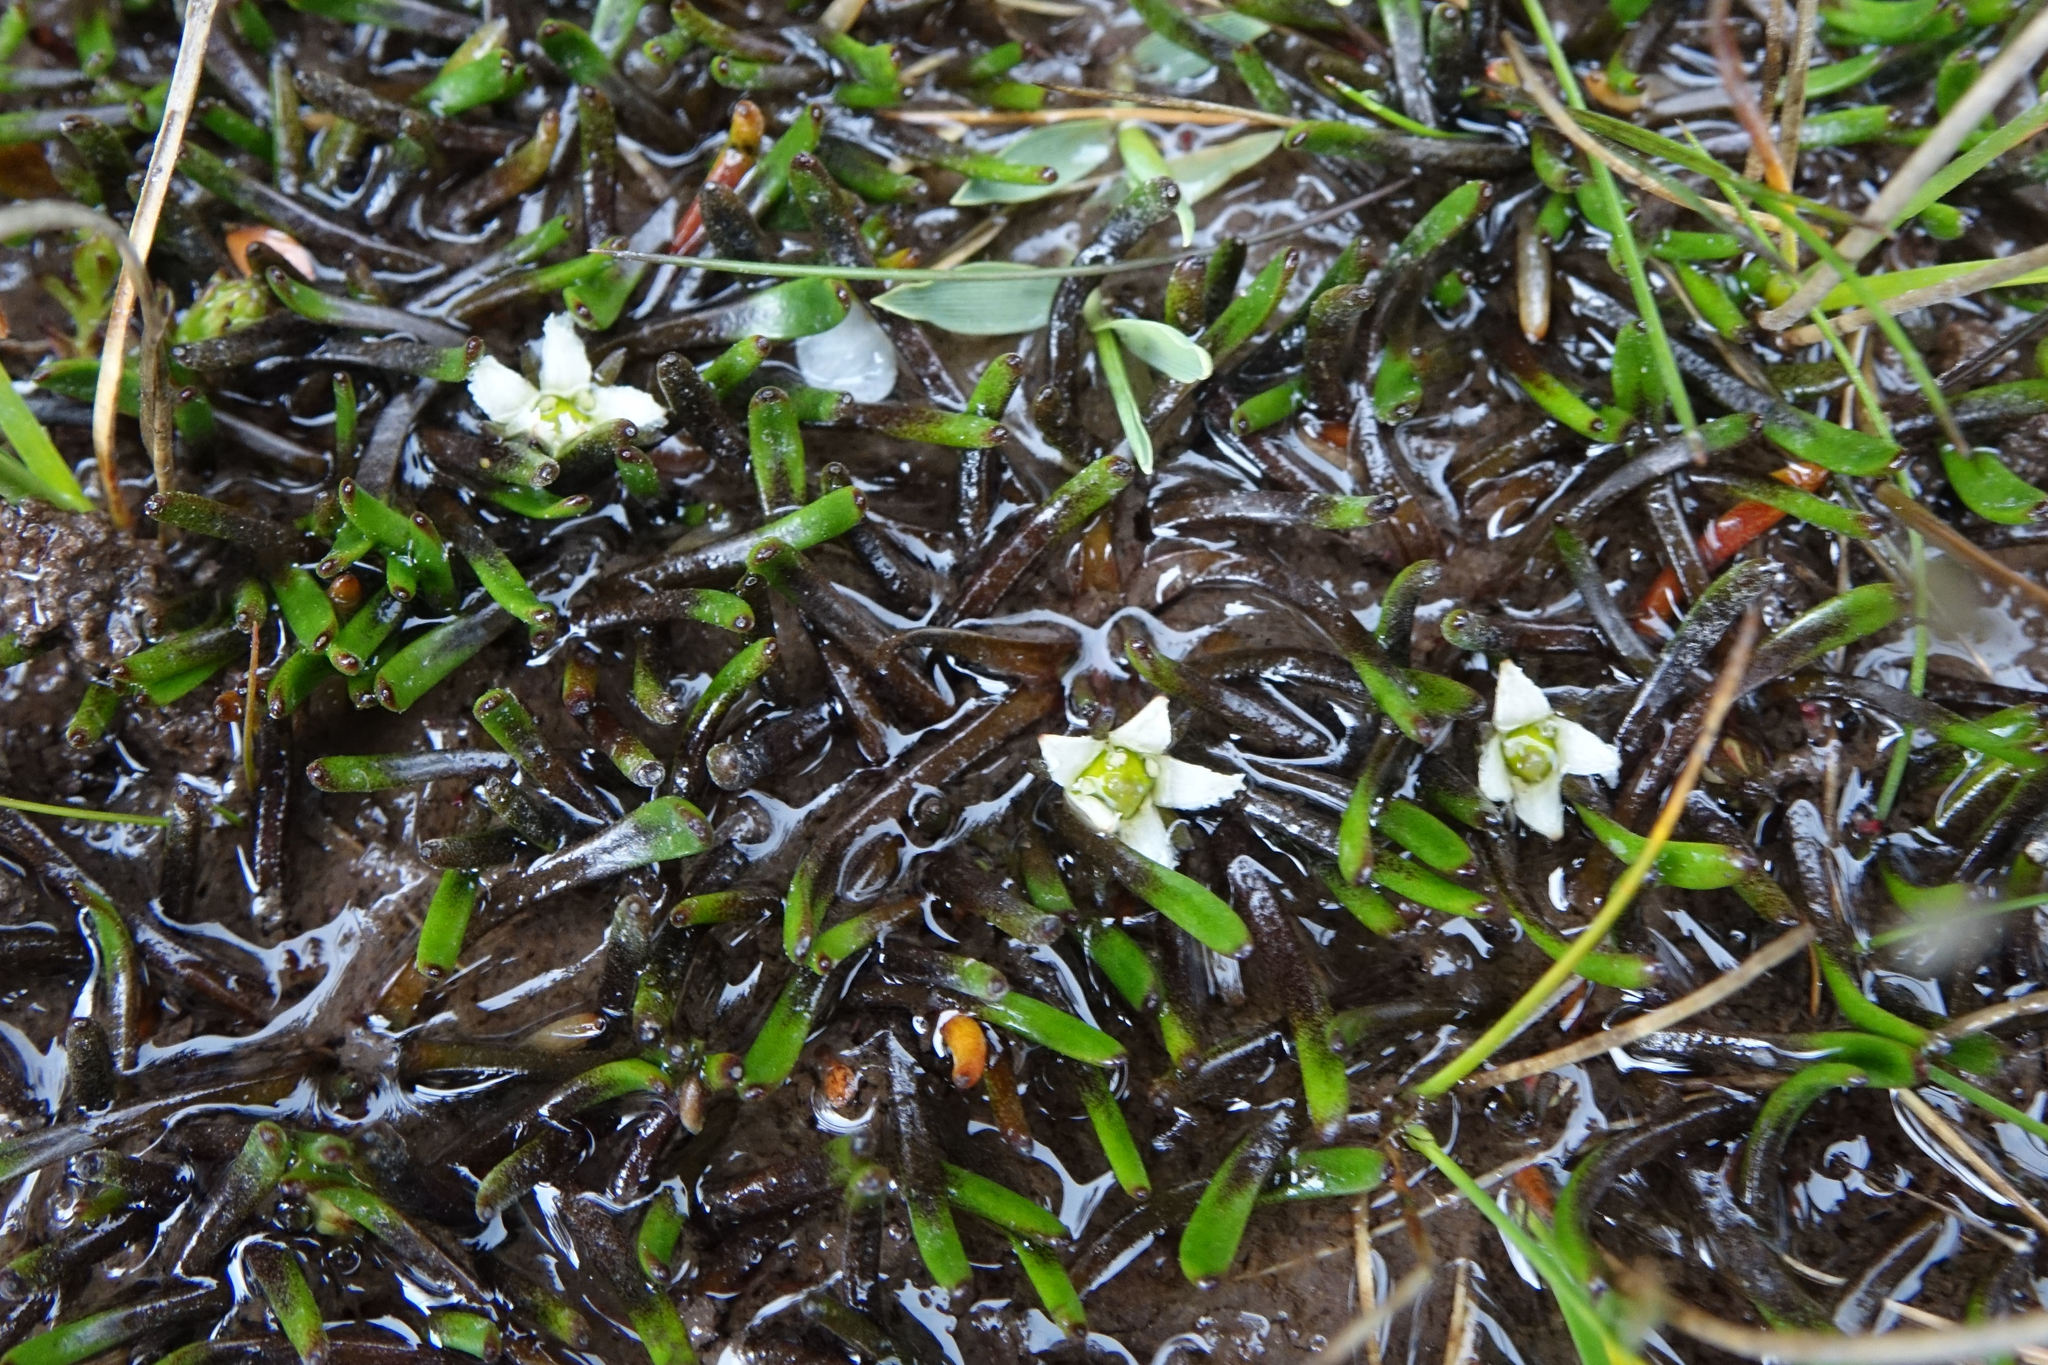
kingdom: Plantae
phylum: Tracheophyta
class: Magnoliopsida
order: Asterales
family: Menyanthaceae
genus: Liparophyllum
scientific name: Liparophyllum gunnii
